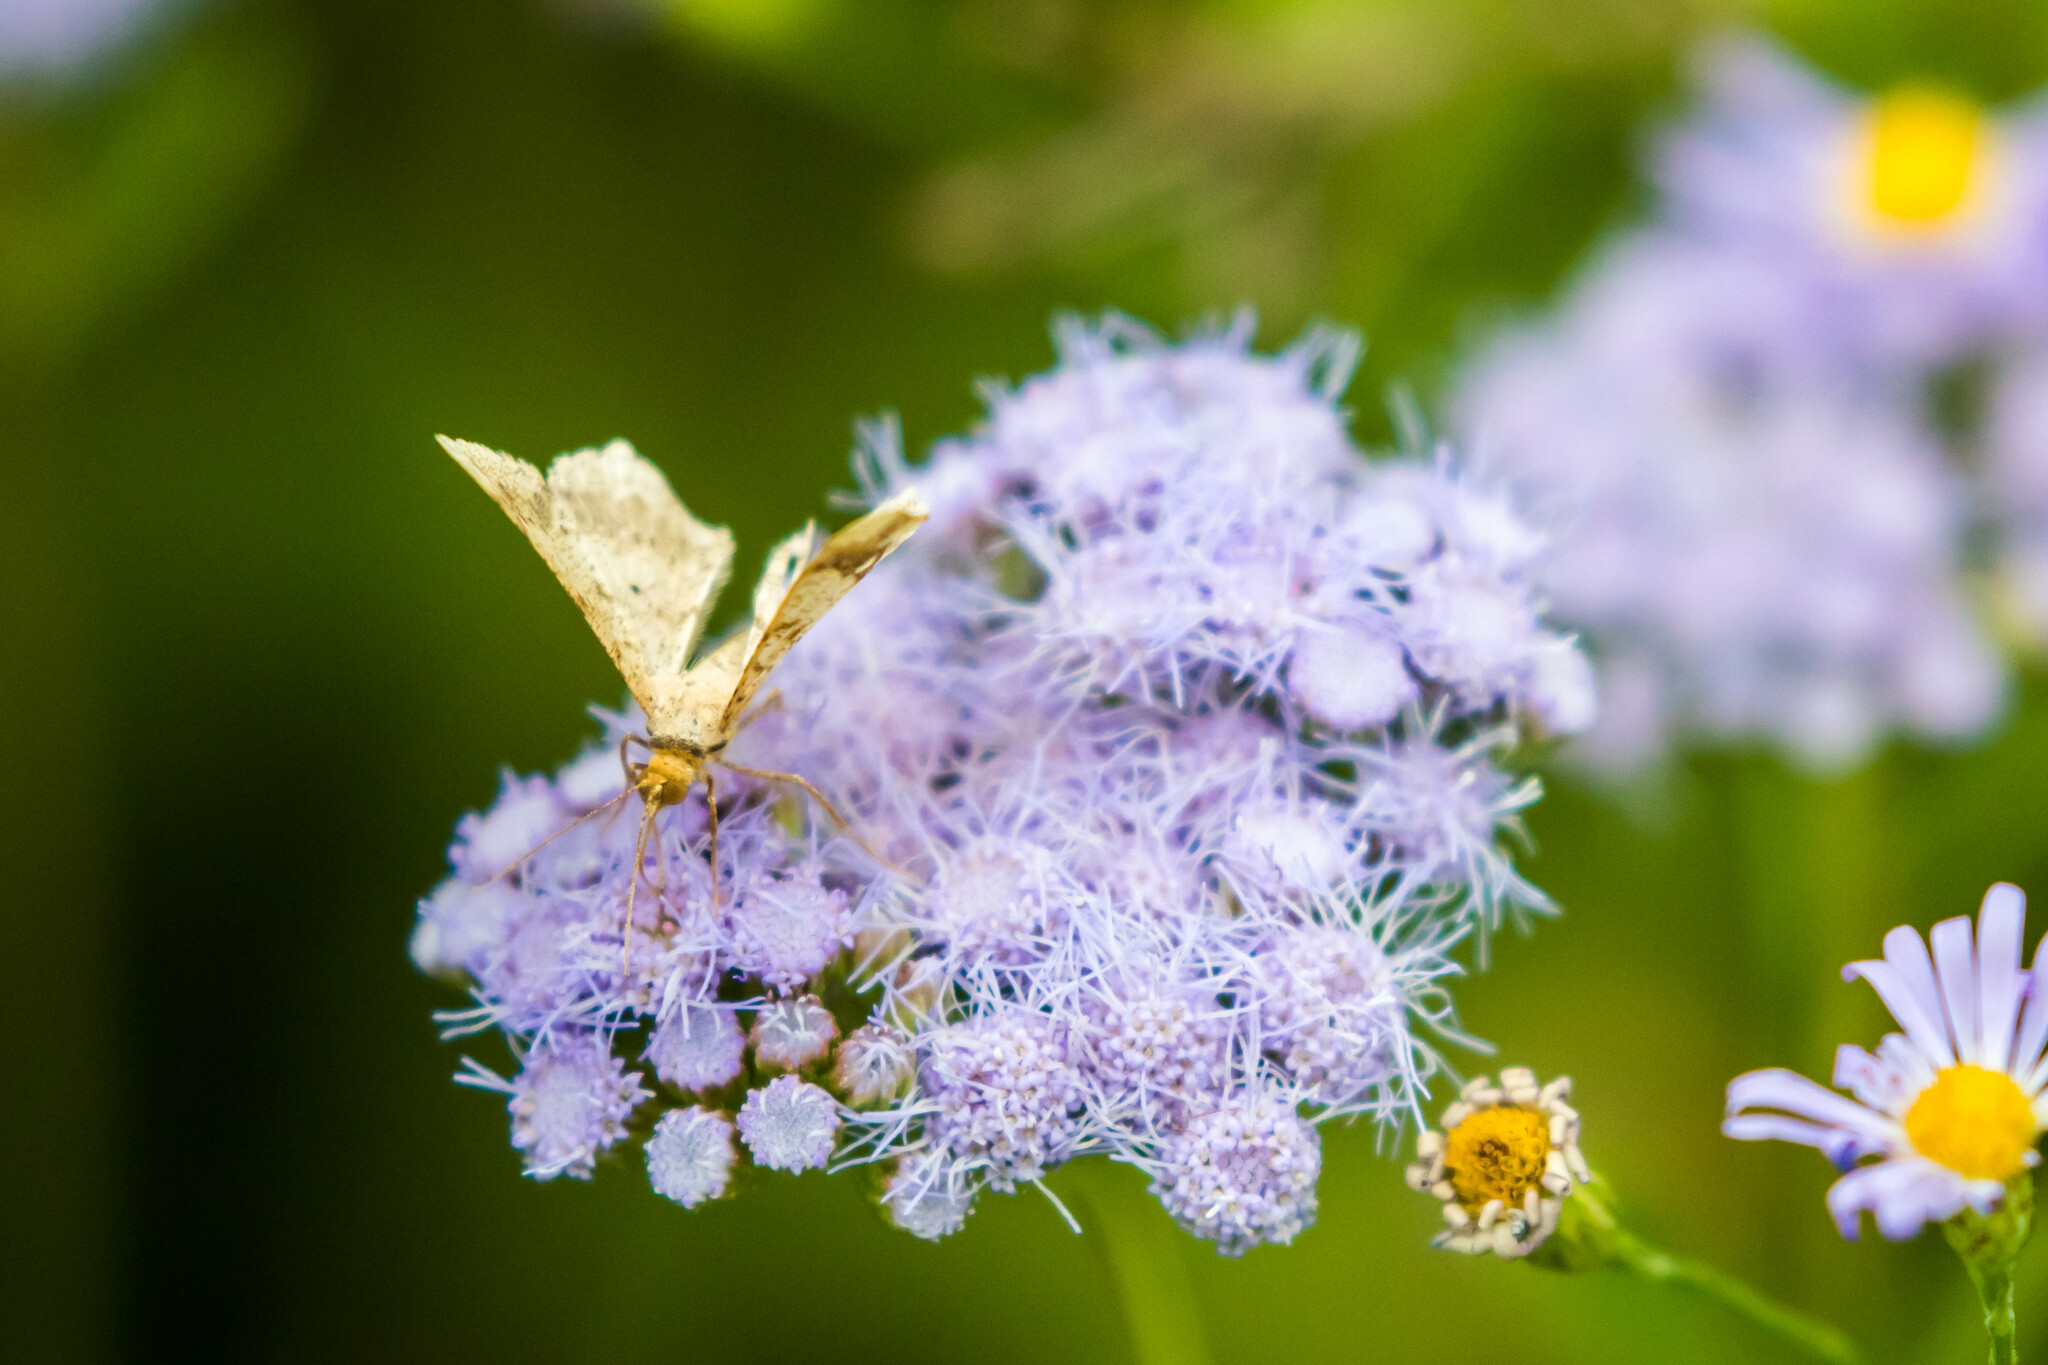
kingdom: Animalia
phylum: Arthropoda
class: Insecta
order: Lepidoptera
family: Geometridae
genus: Macaria
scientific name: Macaria abydata
